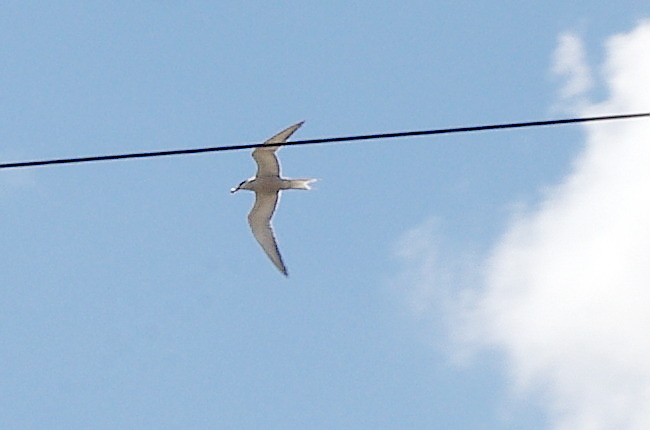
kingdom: Animalia
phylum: Chordata
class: Aves
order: Charadriiformes
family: Laridae
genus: Sterna
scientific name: Sterna hirundo
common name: Common tern
